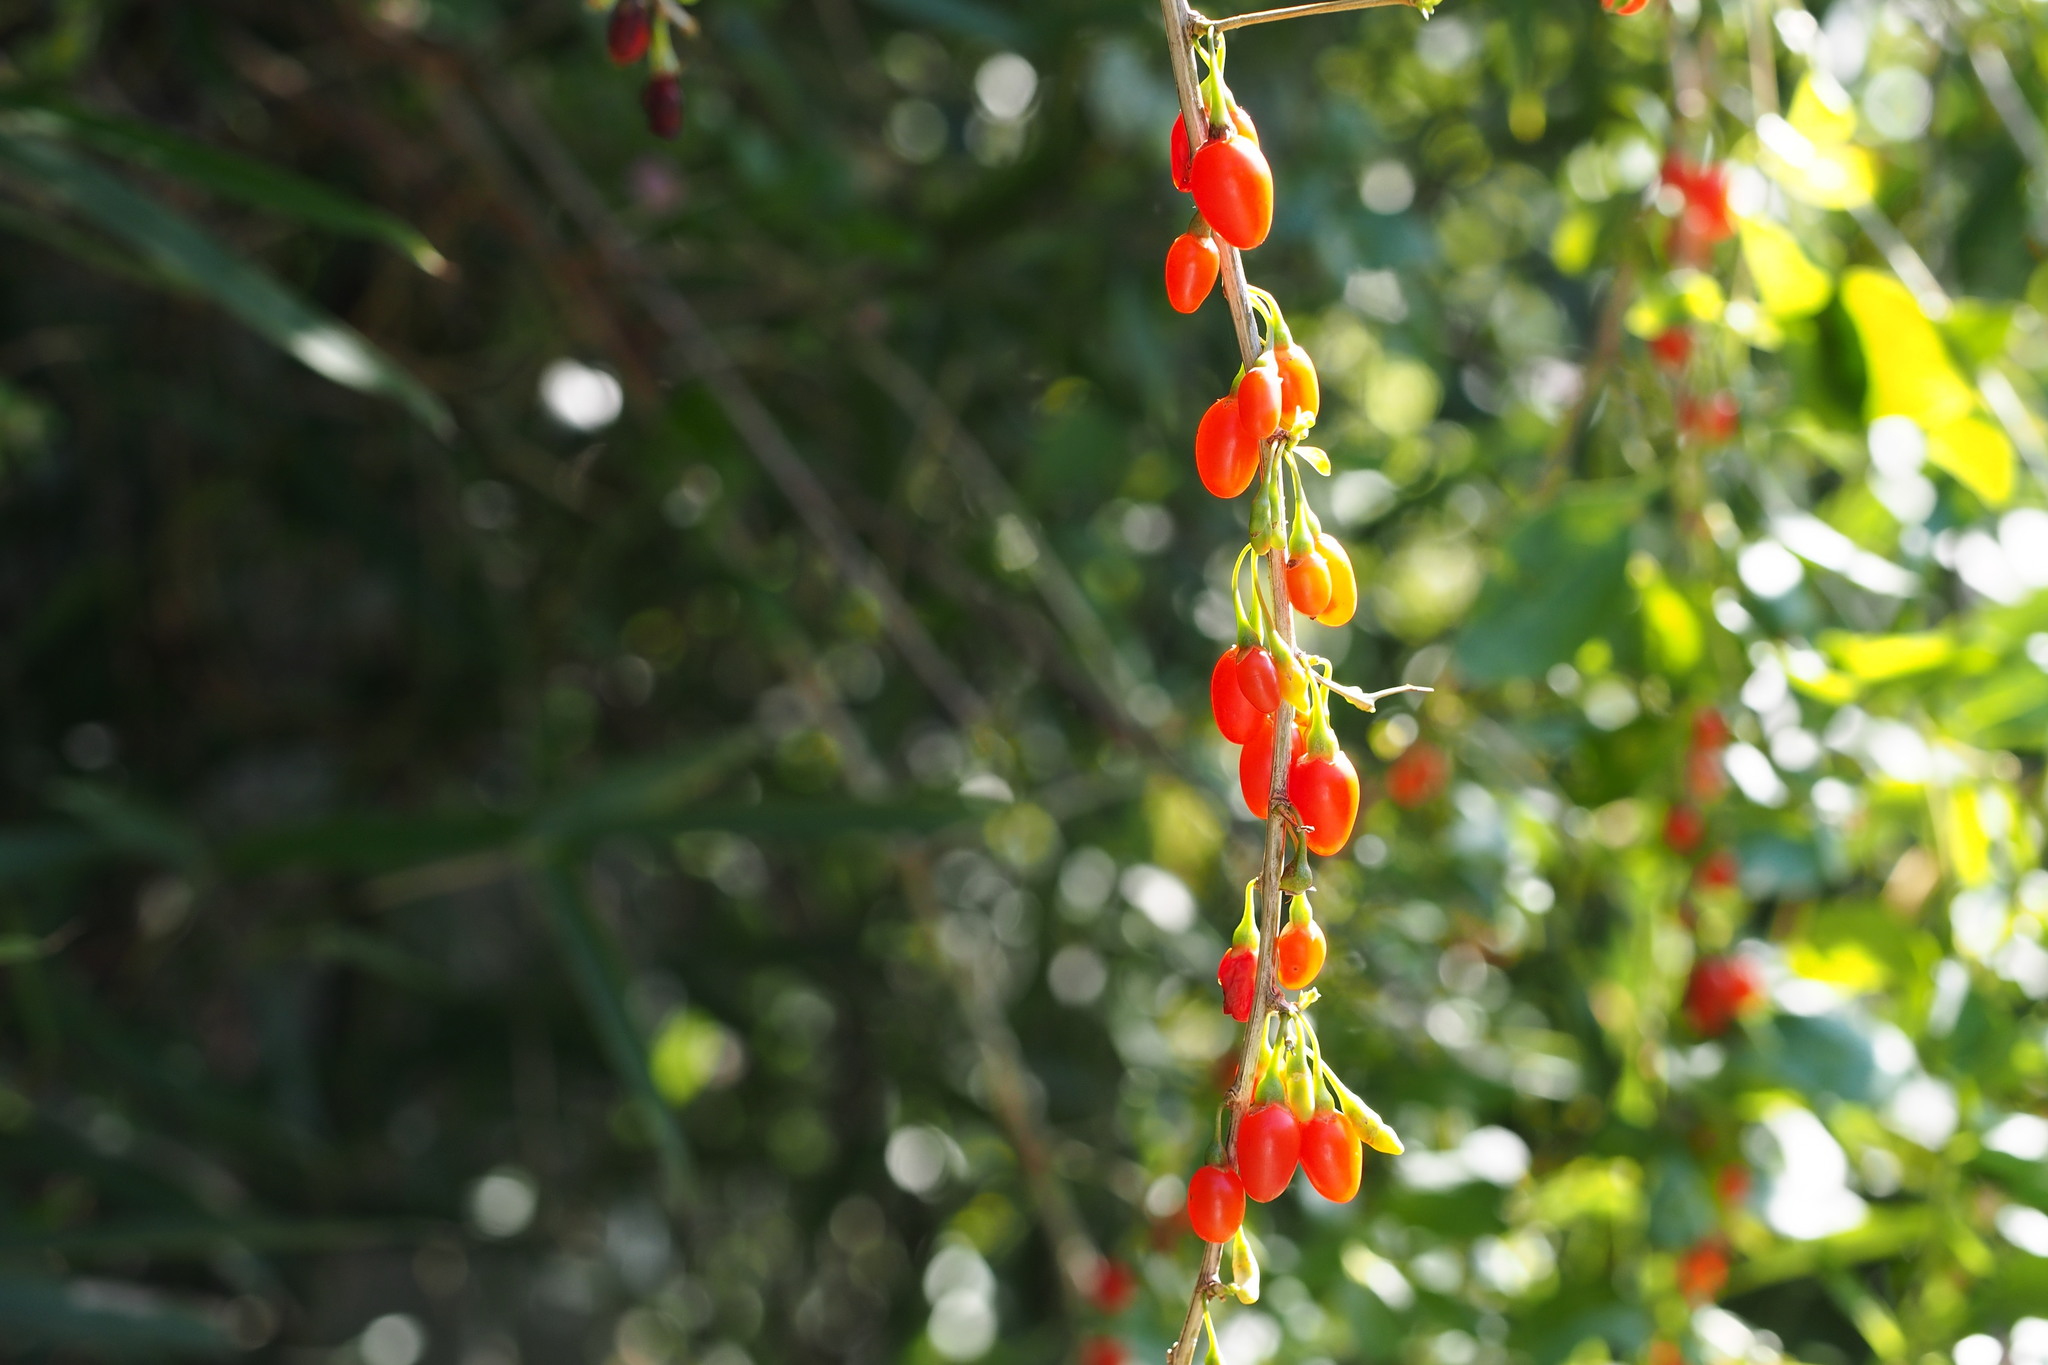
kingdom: Plantae
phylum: Tracheophyta
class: Magnoliopsida
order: Solanales
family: Solanaceae
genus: Lycium
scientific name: Lycium chinense
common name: Chinese teaplant
